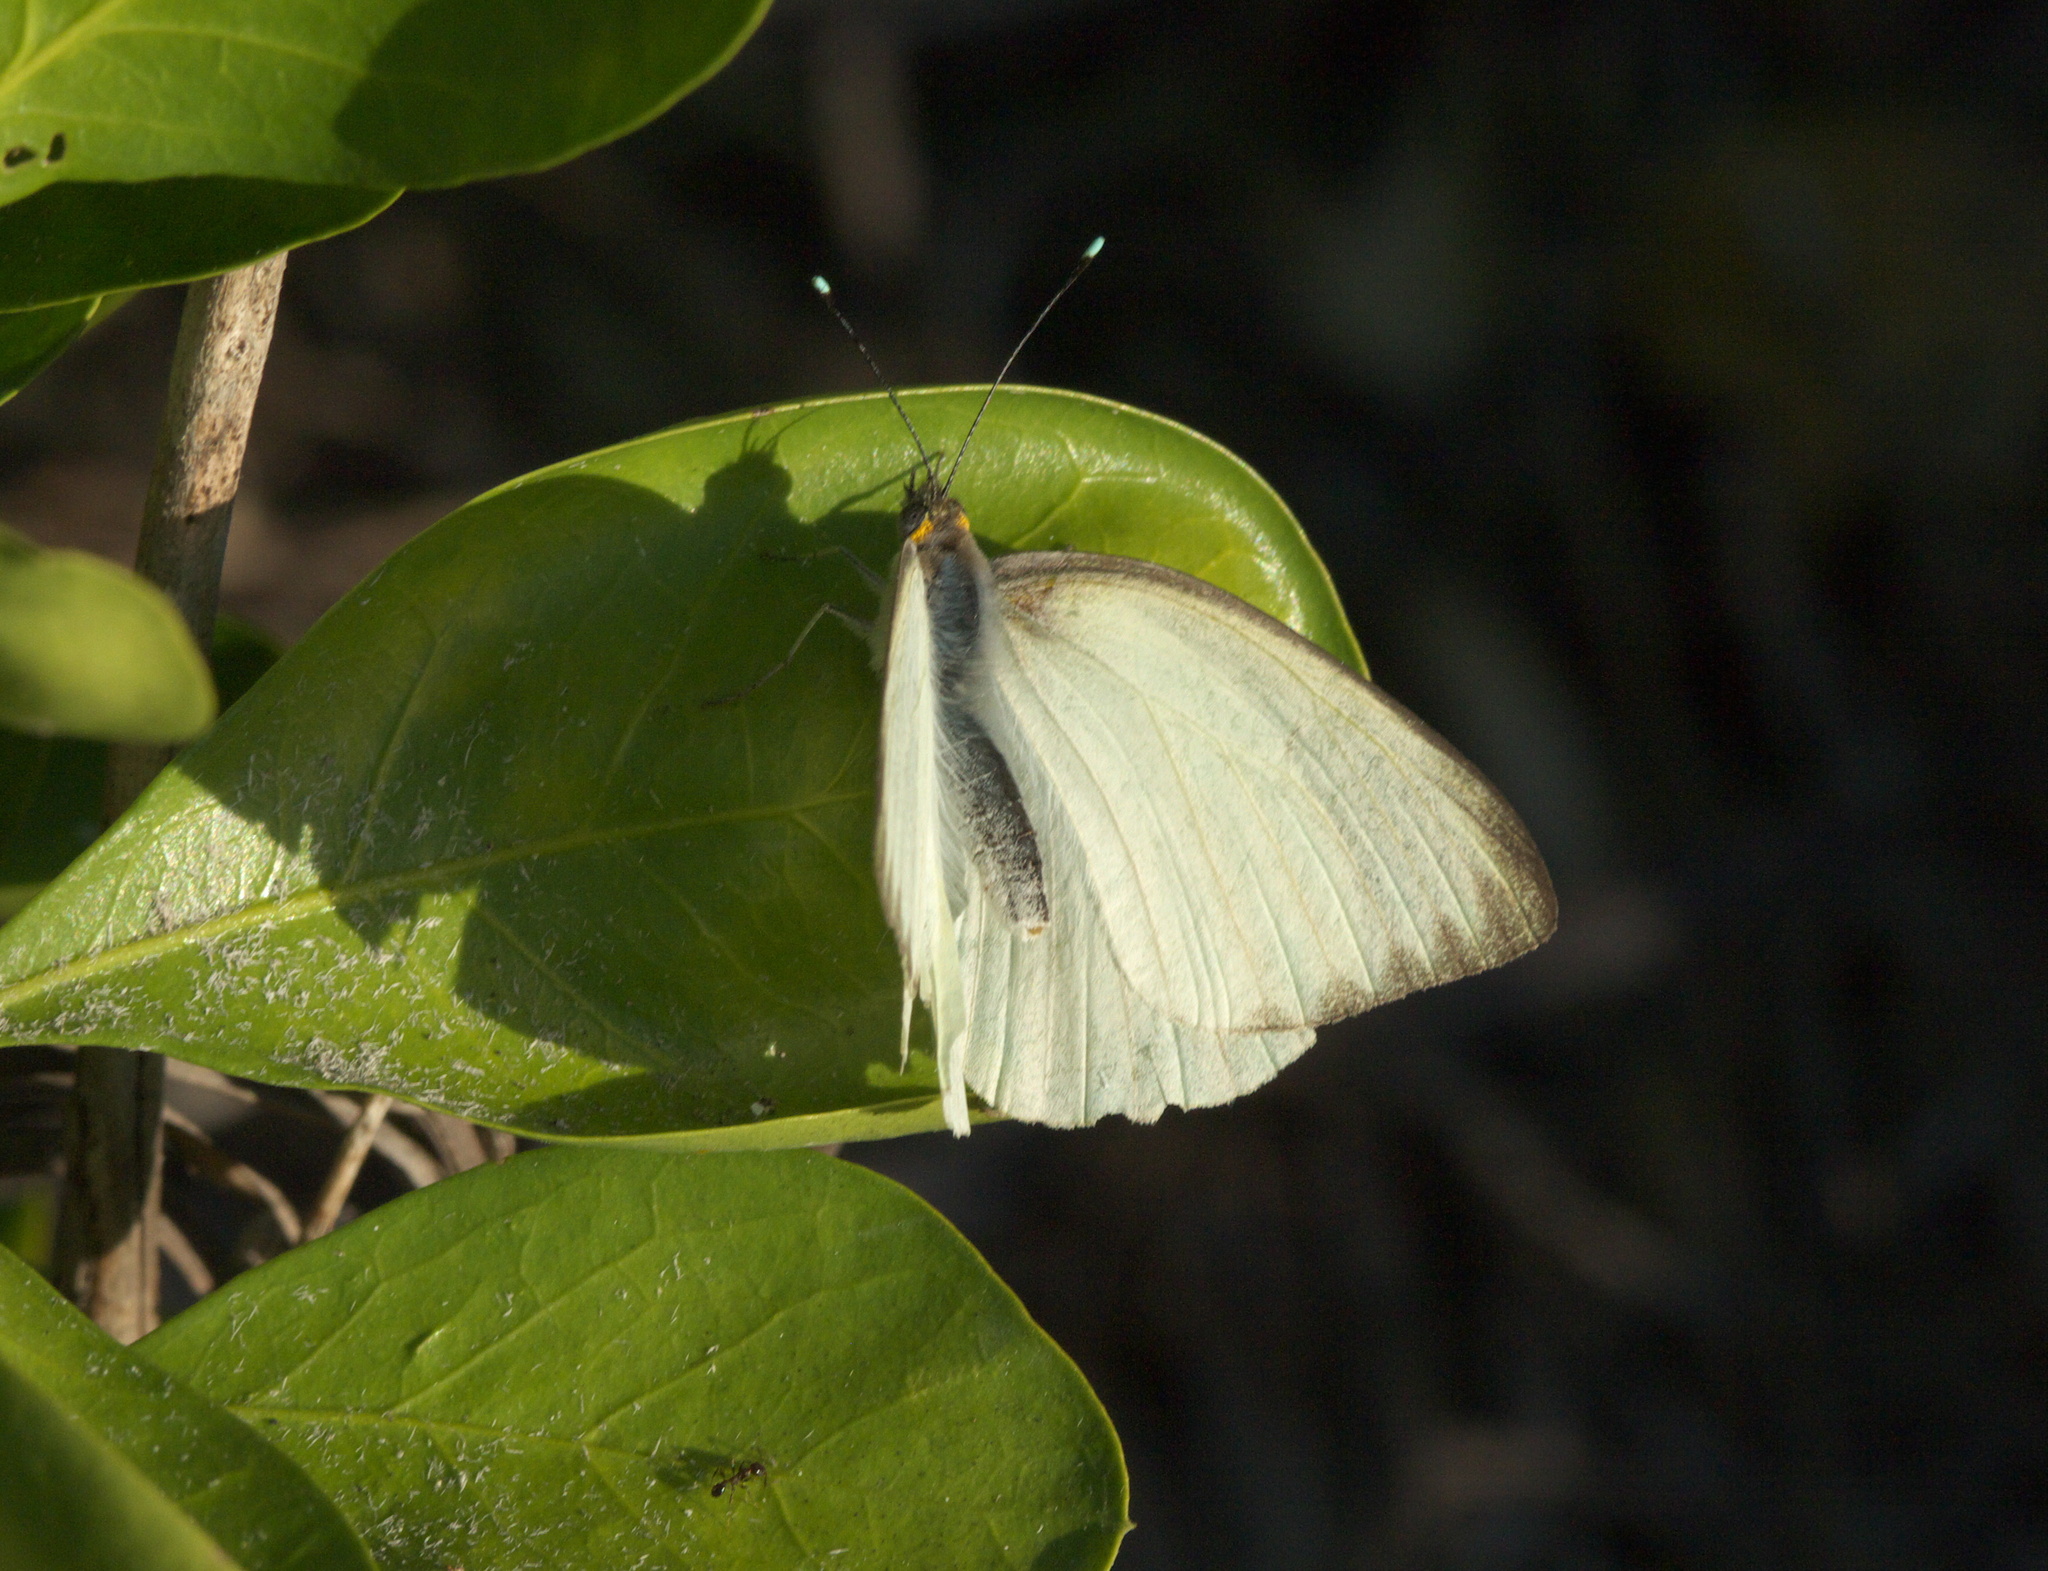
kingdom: Animalia
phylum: Arthropoda
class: Insecta
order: Lepidoptera
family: Pieridae
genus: Ascia
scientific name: Ascia monuste
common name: Great southern white
